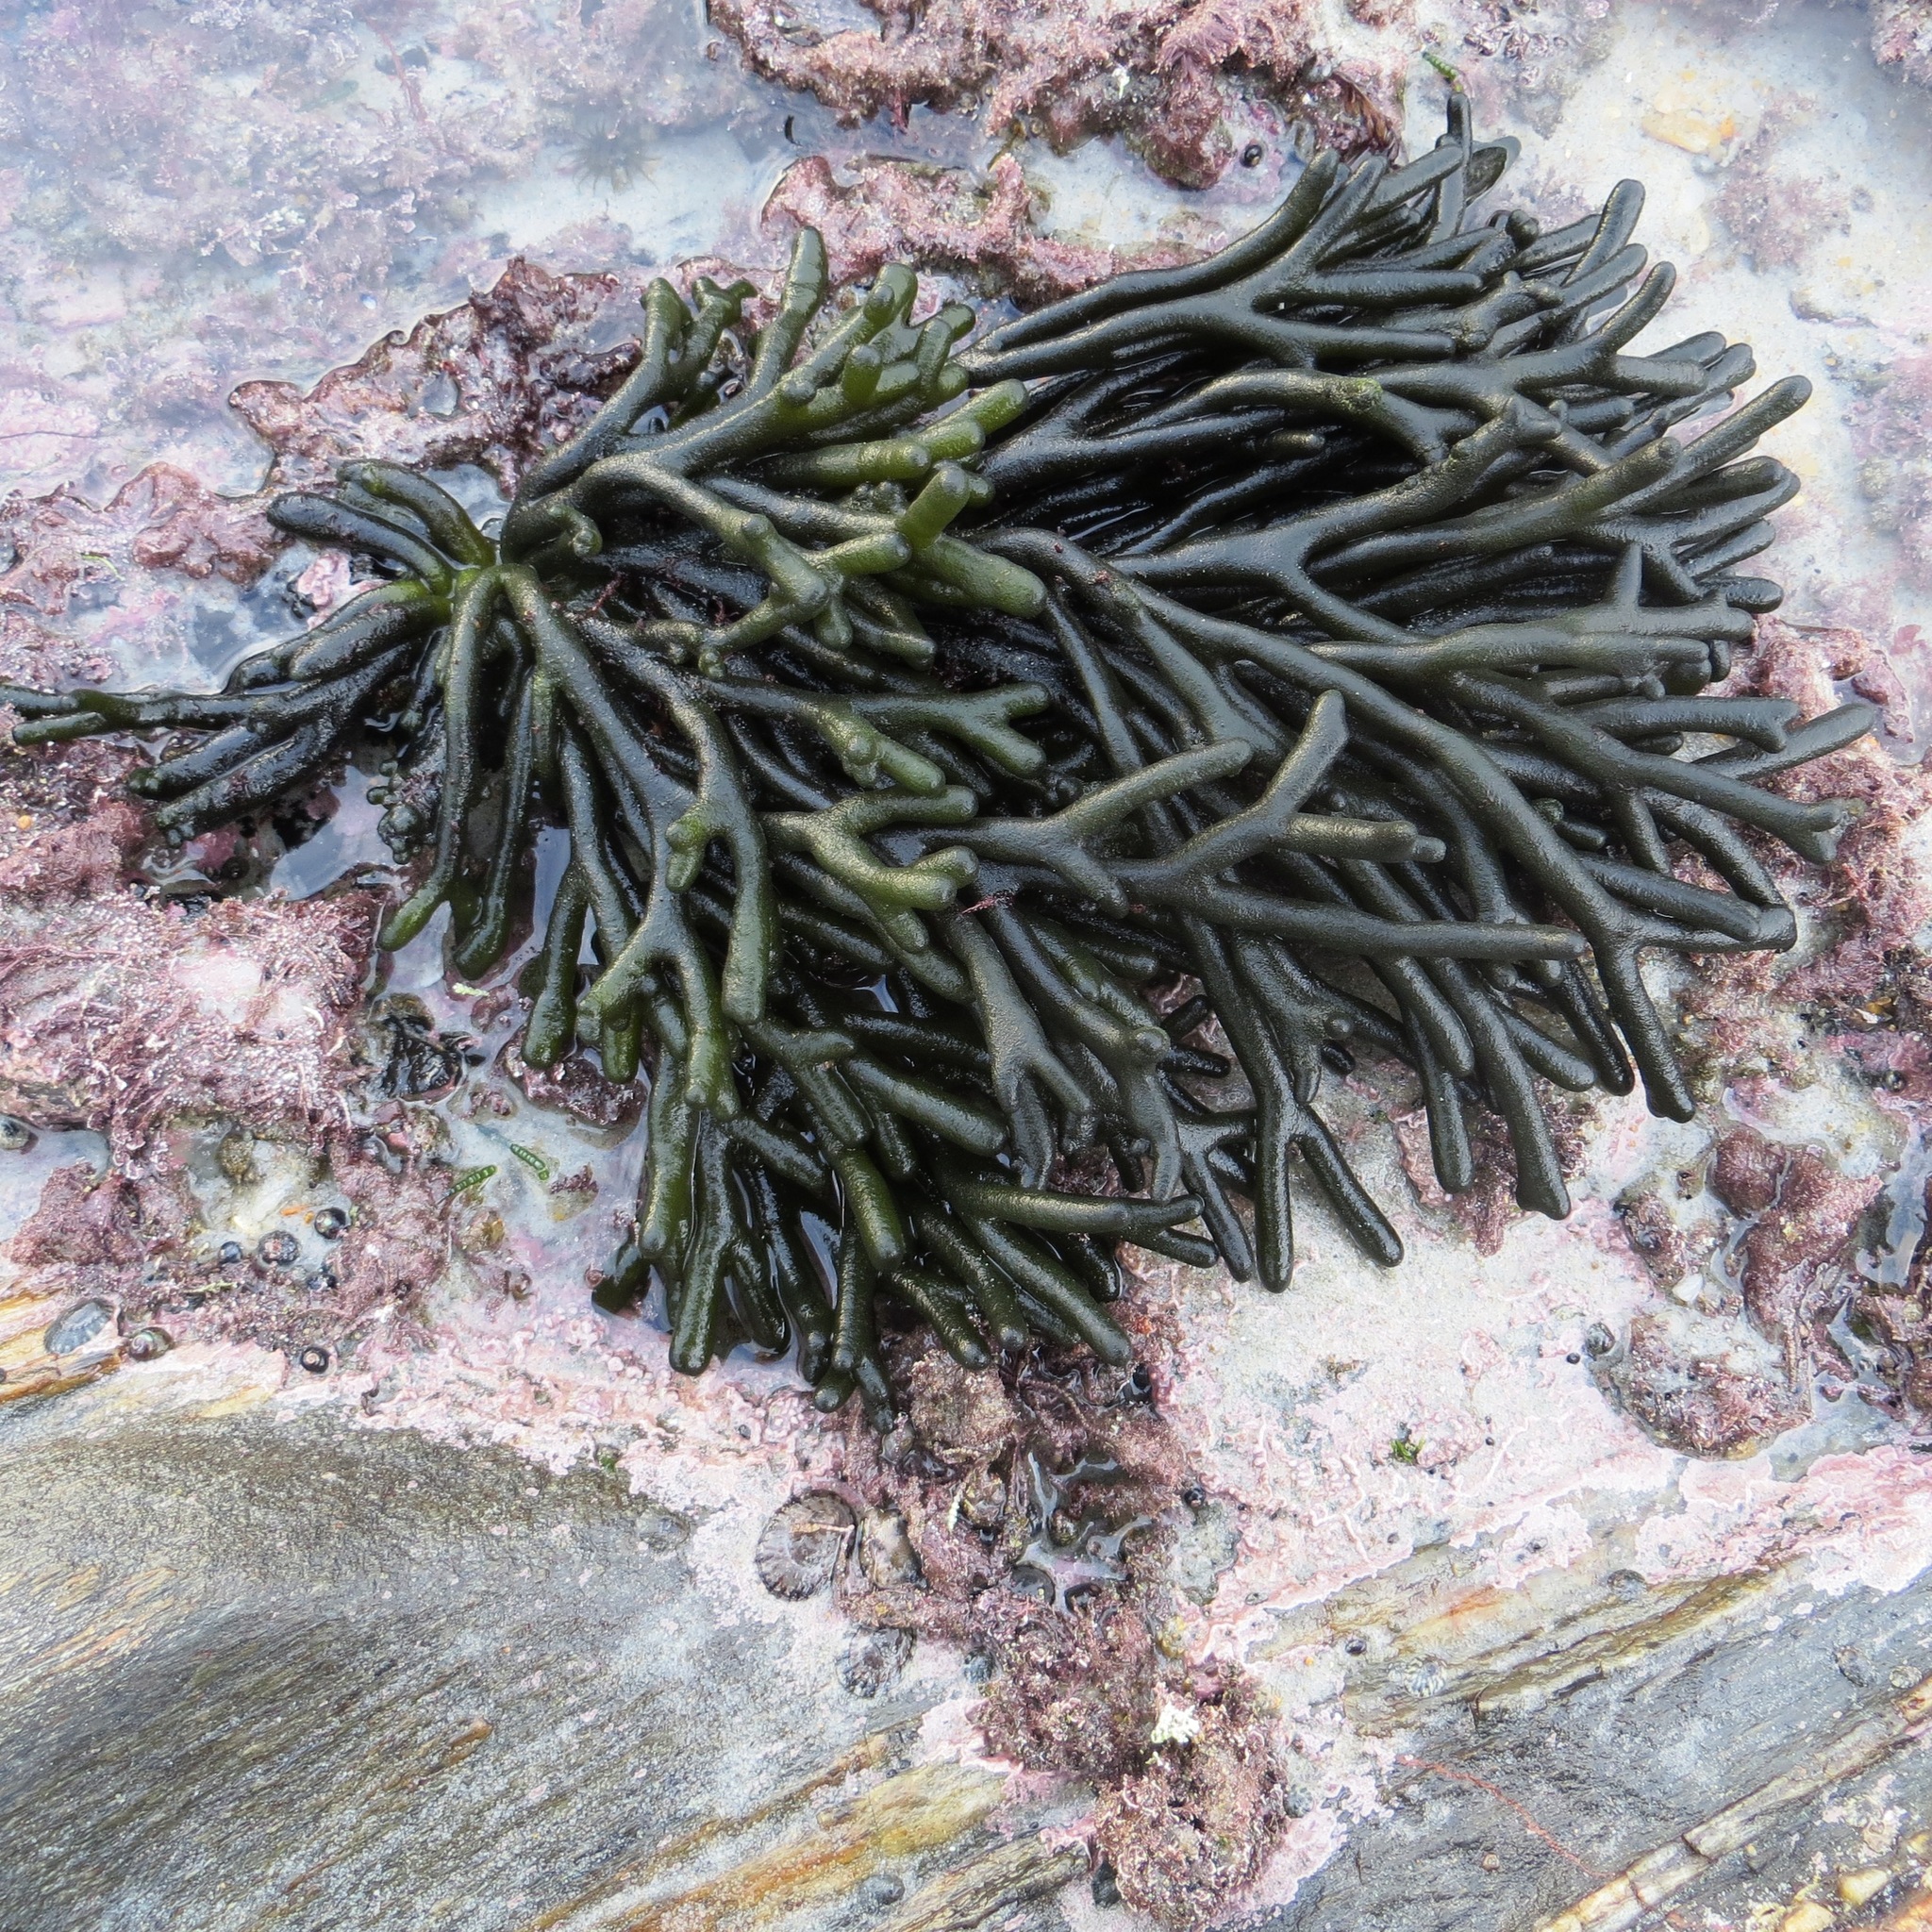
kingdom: Plantae
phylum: Chlorophyta
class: Ulvophyceae
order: Bryopsidales
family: Codiaceae
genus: Codium
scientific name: Codium fragile
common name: Dead man's fingers
